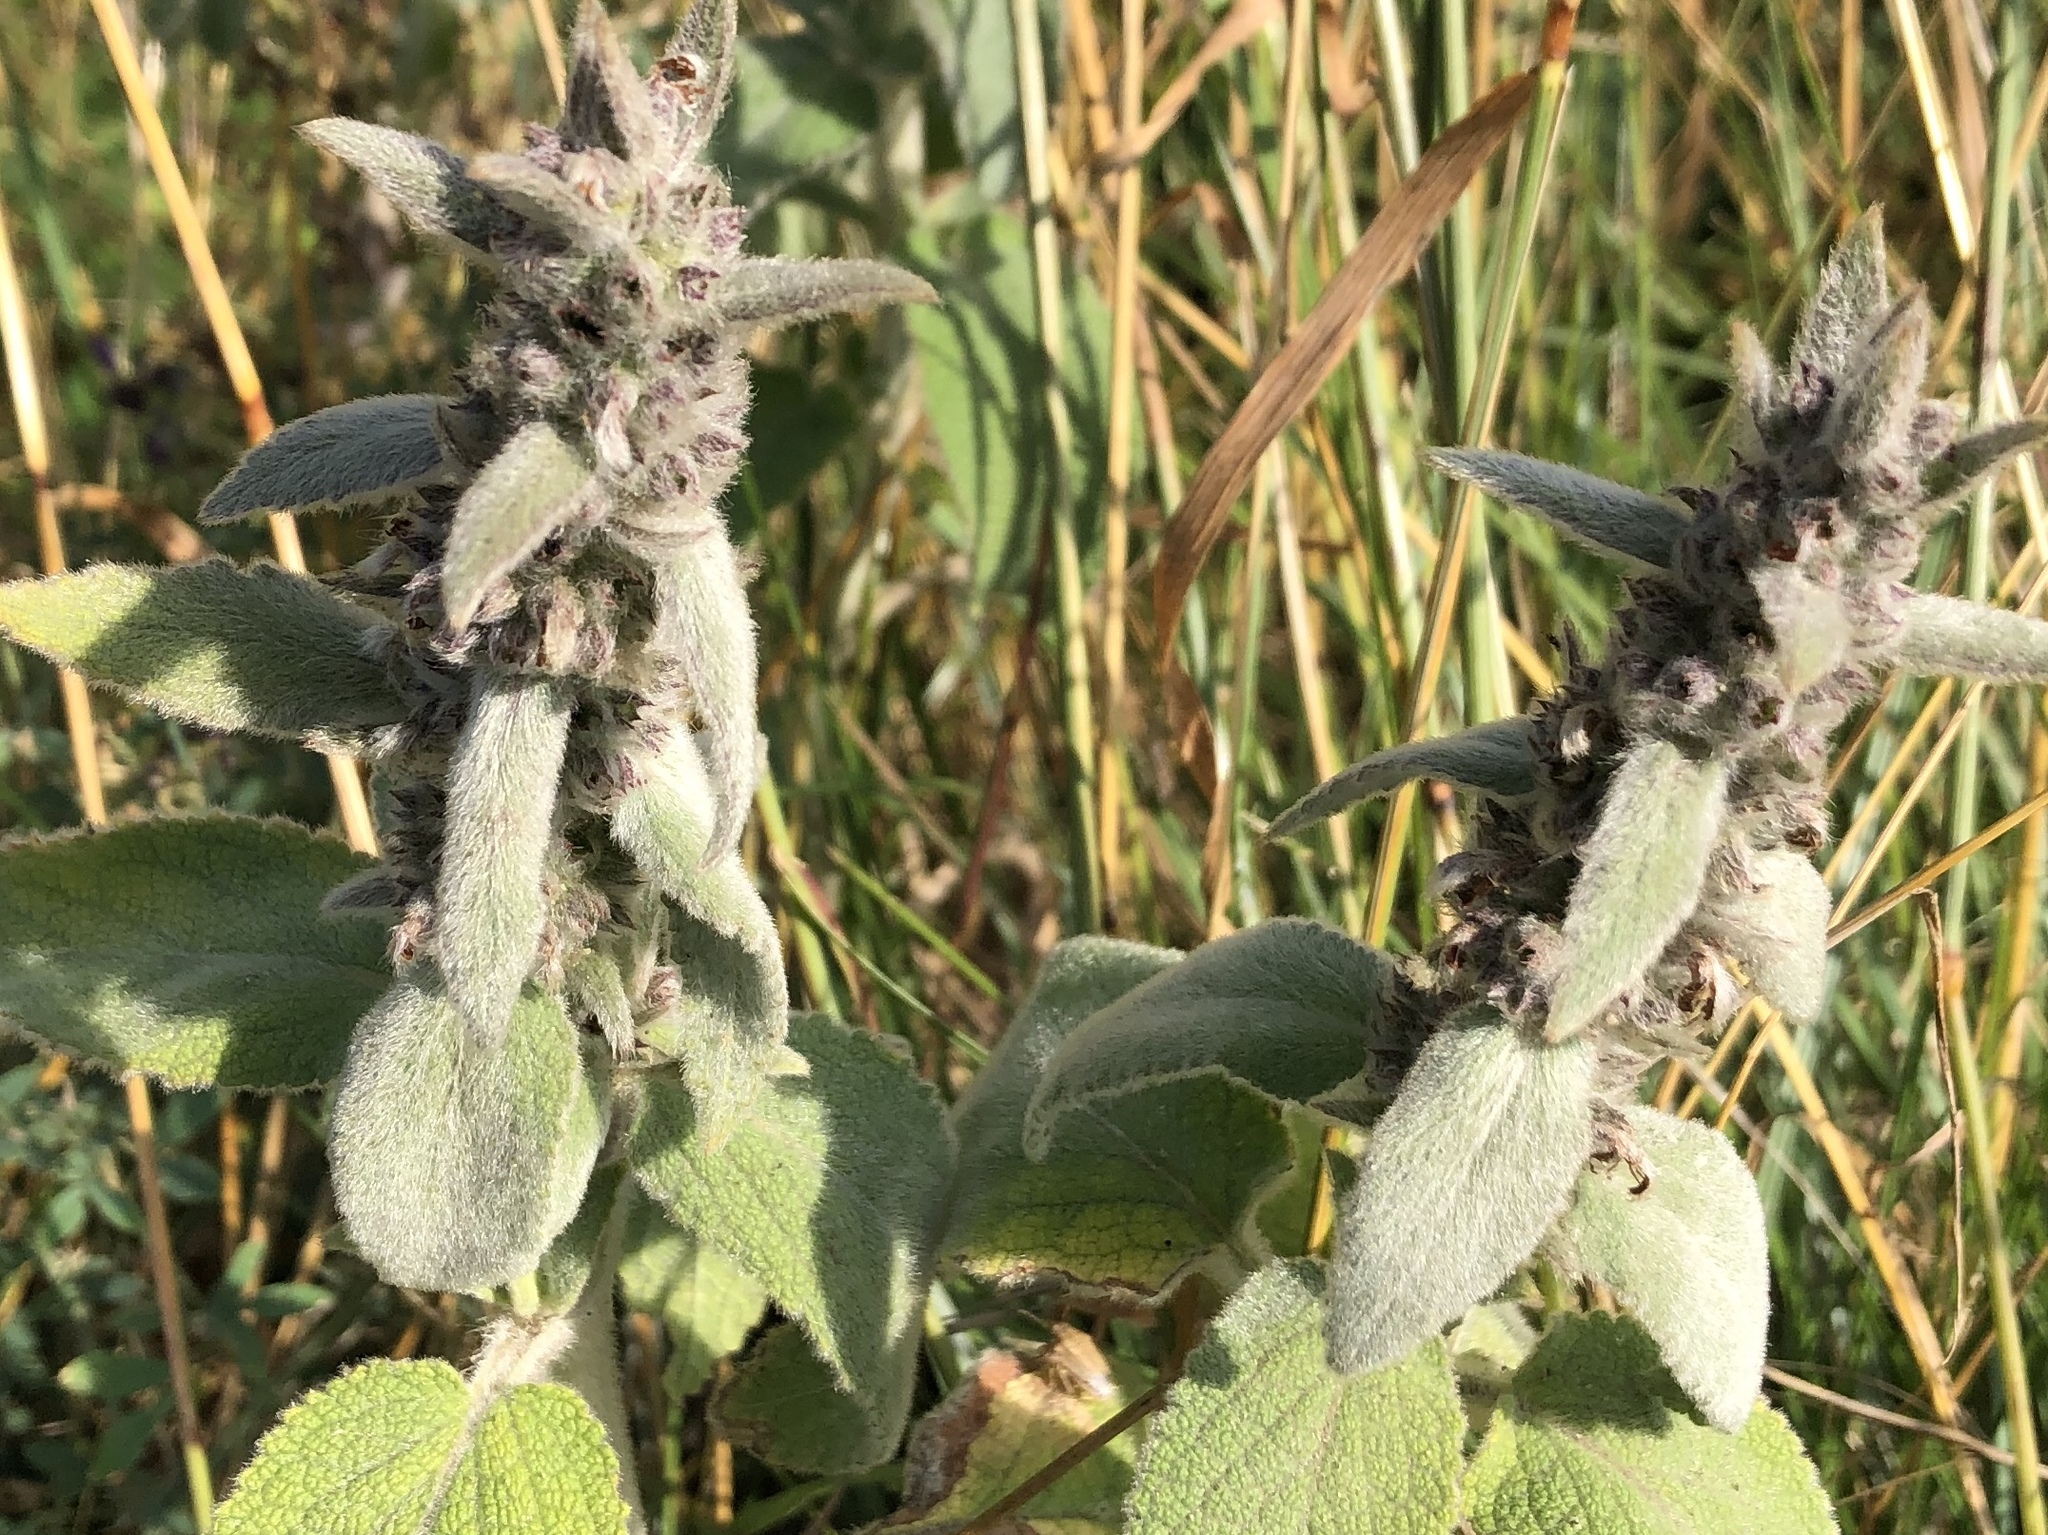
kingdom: Plantae
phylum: Tracheophyta
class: Magnoliopsida
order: Lamiales
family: Lamiaceae
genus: Stachys
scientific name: Stachys germanica
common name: Downy woundwort
